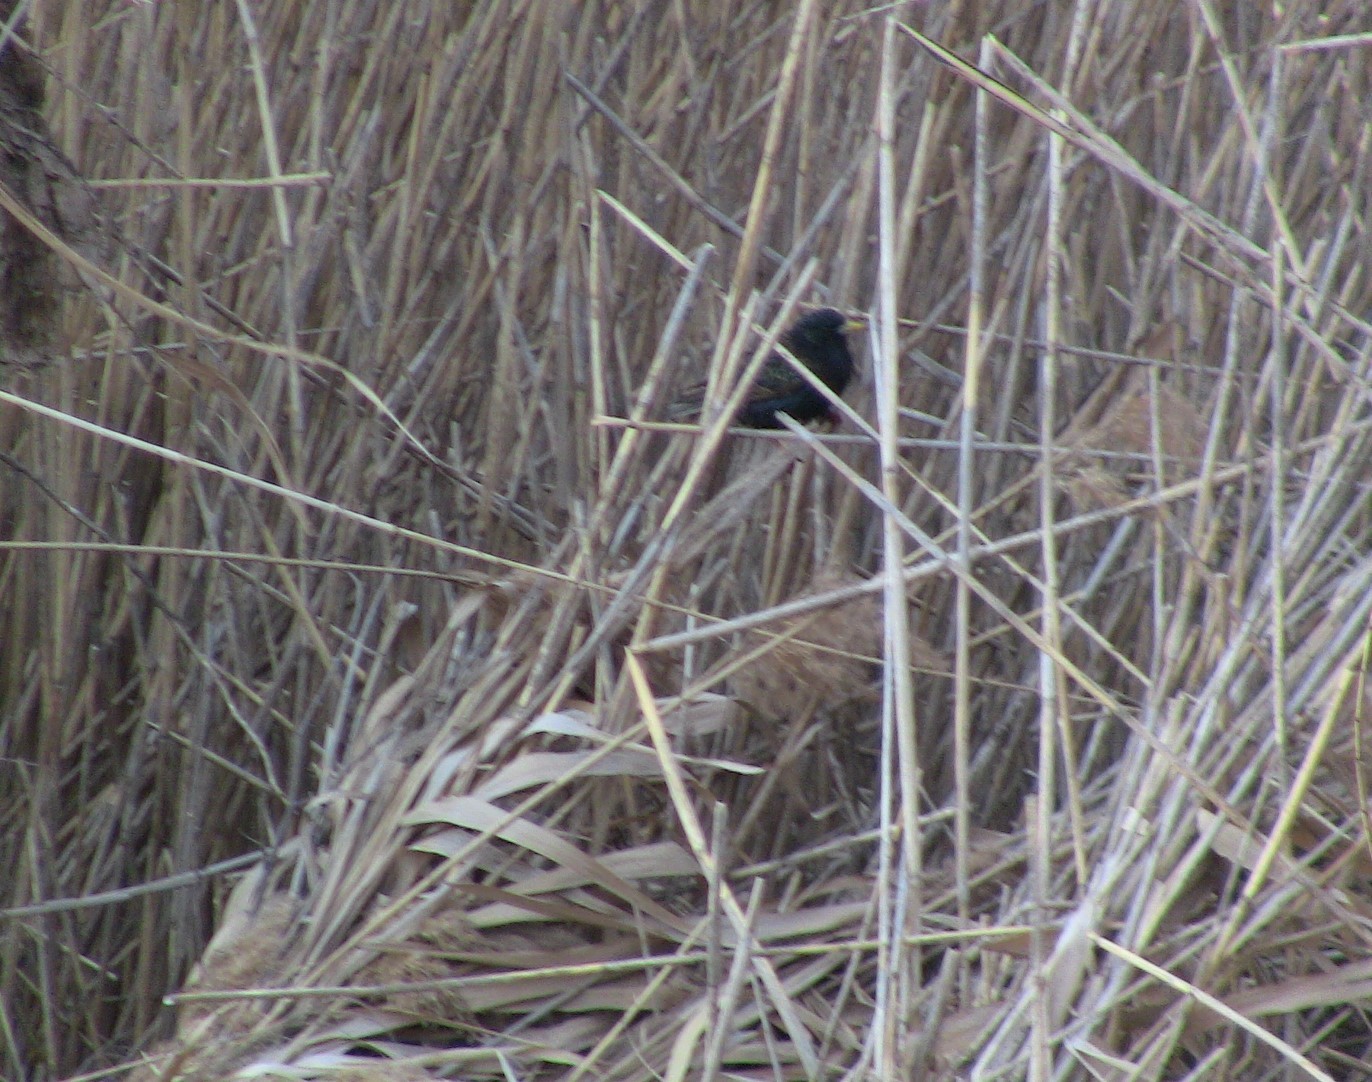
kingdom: Animalia
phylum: Chordata
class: Aves
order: Passeriformes
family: Sturnidae
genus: Sturnus
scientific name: Sturnus vulgaris
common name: Common starling
